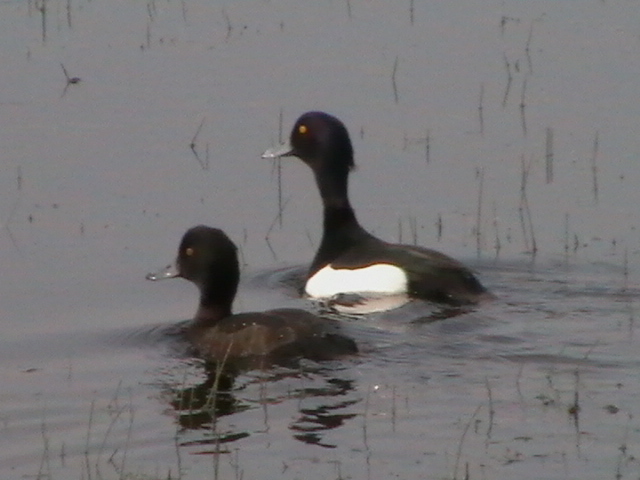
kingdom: Animalia
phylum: Chordata
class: Aves
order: Anseriformes
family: Anatidae
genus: Aythya
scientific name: Aythya fuligula
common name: Tufted duck
